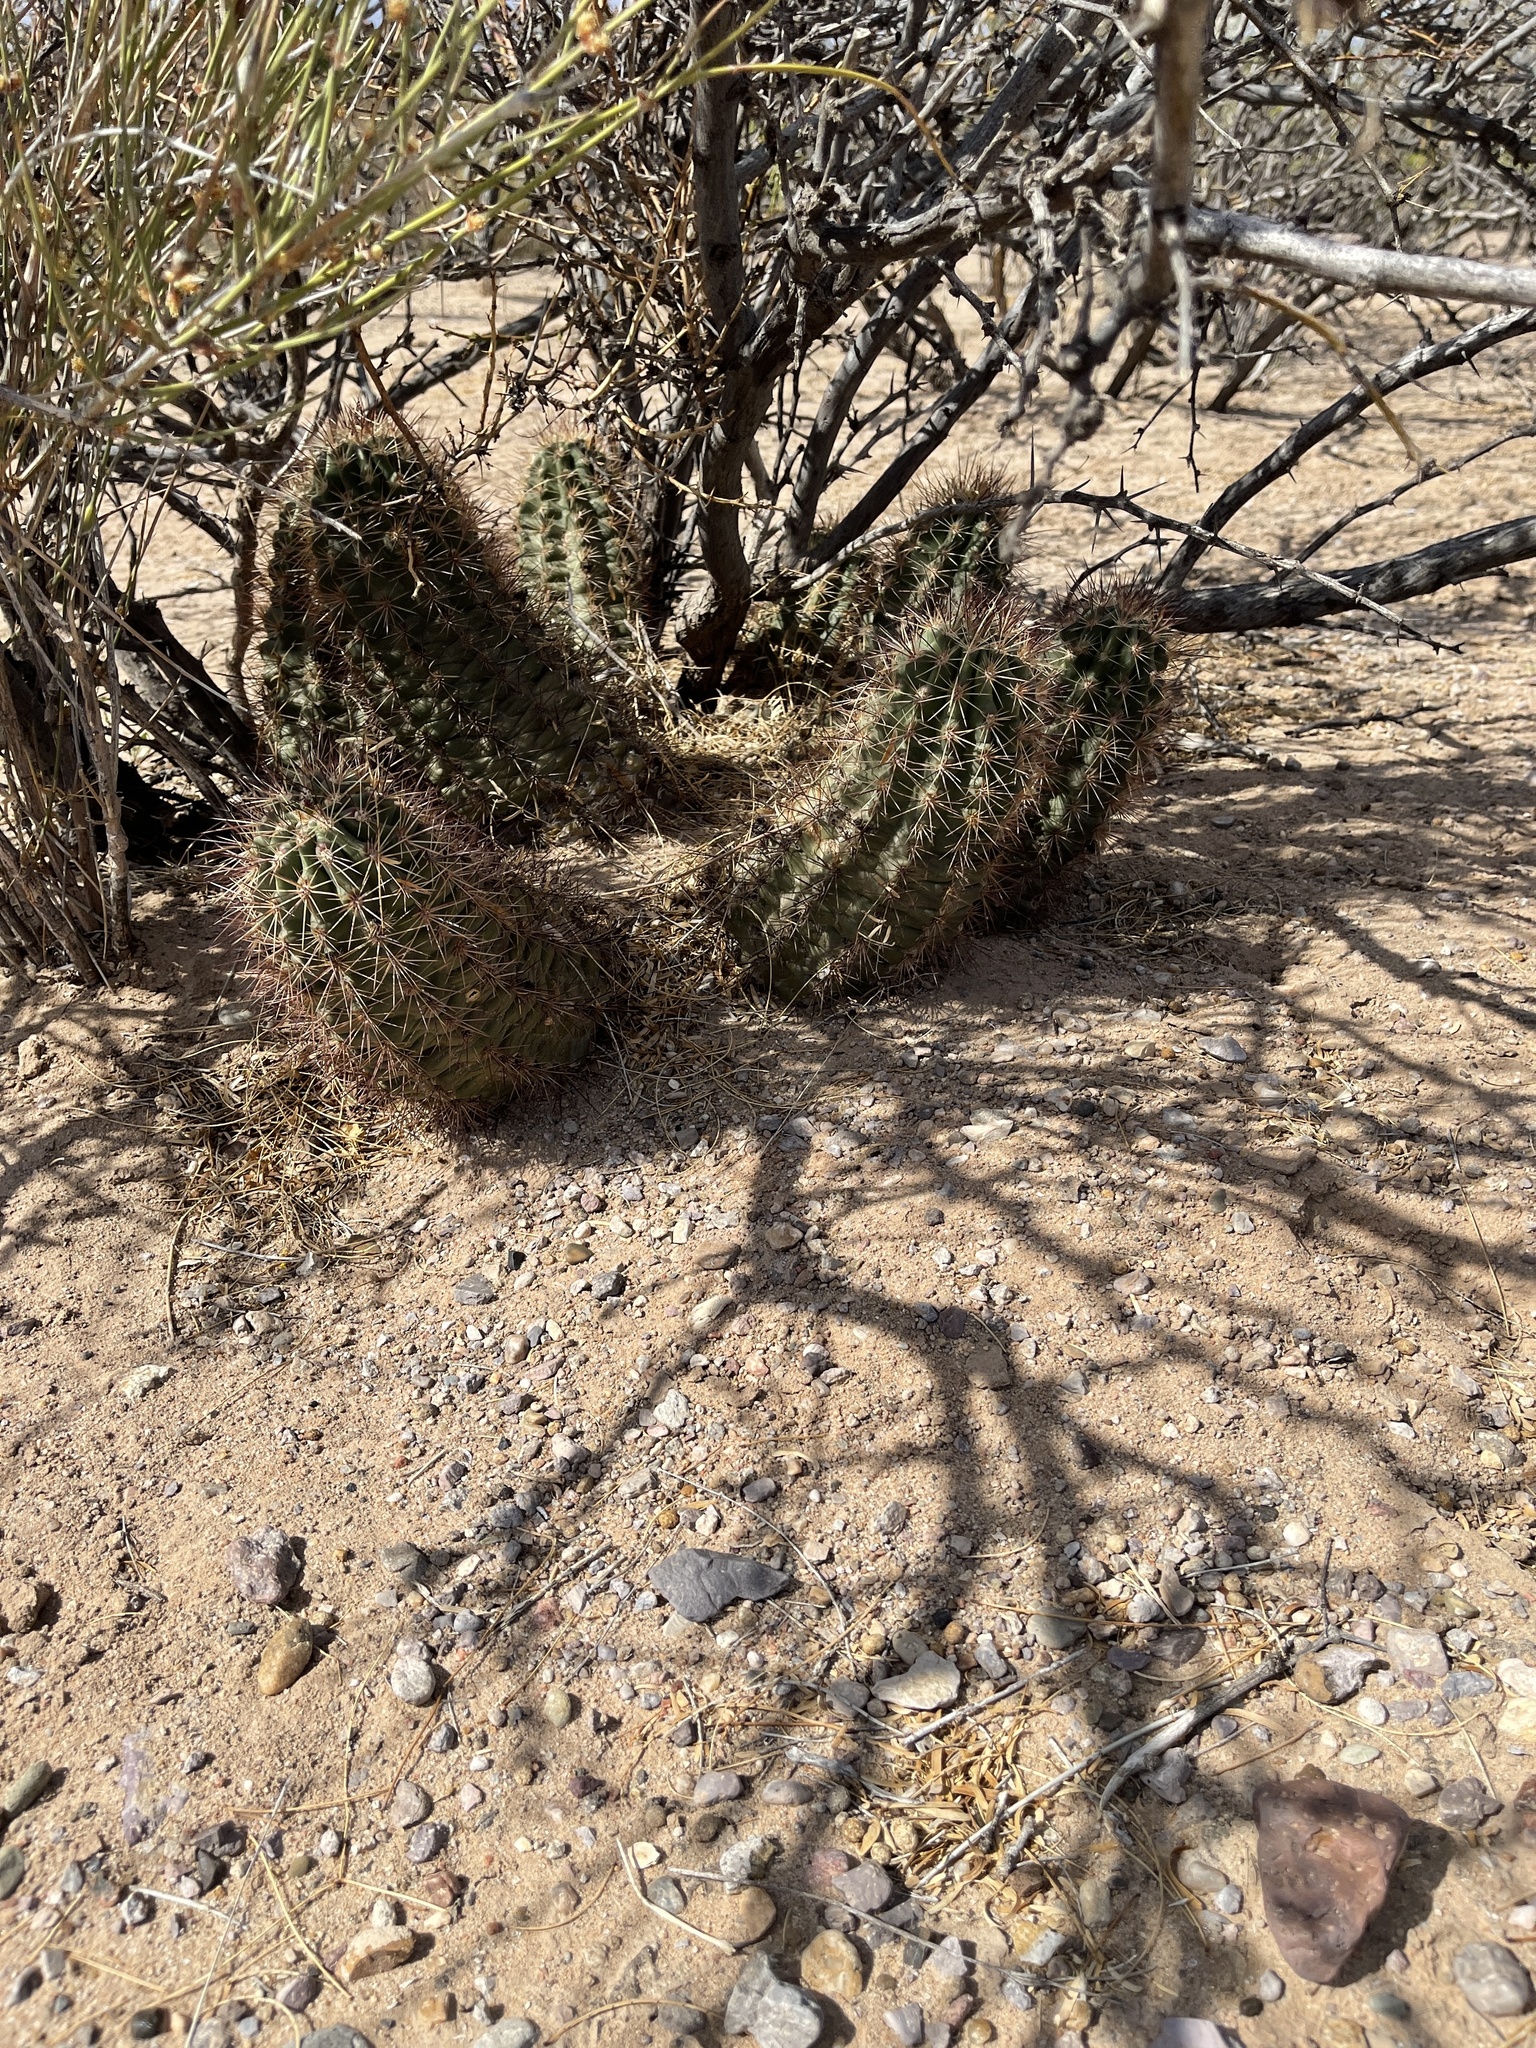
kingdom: Plantae
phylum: Tracheophyta
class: Magnoliopsida
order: Caryophyllales
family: Cactaceae
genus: Echinocereus
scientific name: Echinocereus coccineus
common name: Scarlet hedgehog cactus
